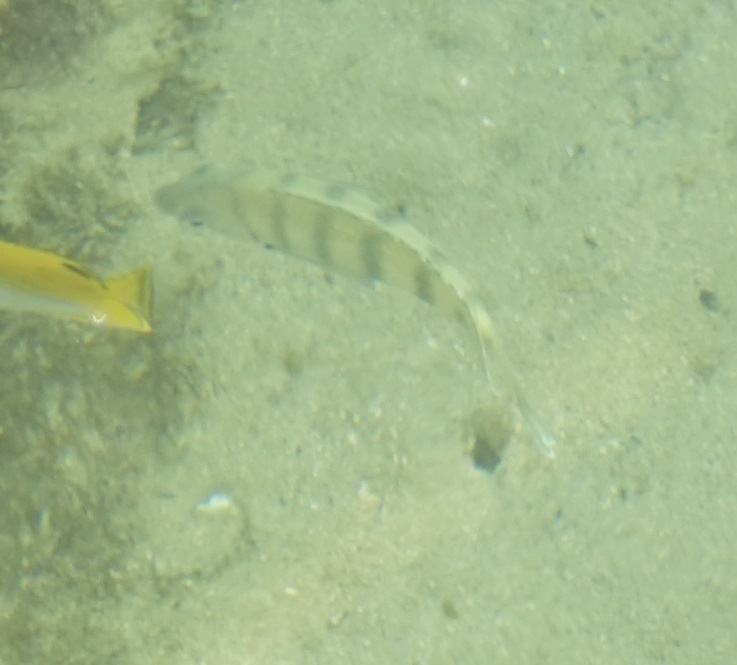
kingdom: Animalia
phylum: Chordata
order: Perciformes
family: Pomacentridae
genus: Abudefduf
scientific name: Abudefduf bengalensis
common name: Bengal sergeant
